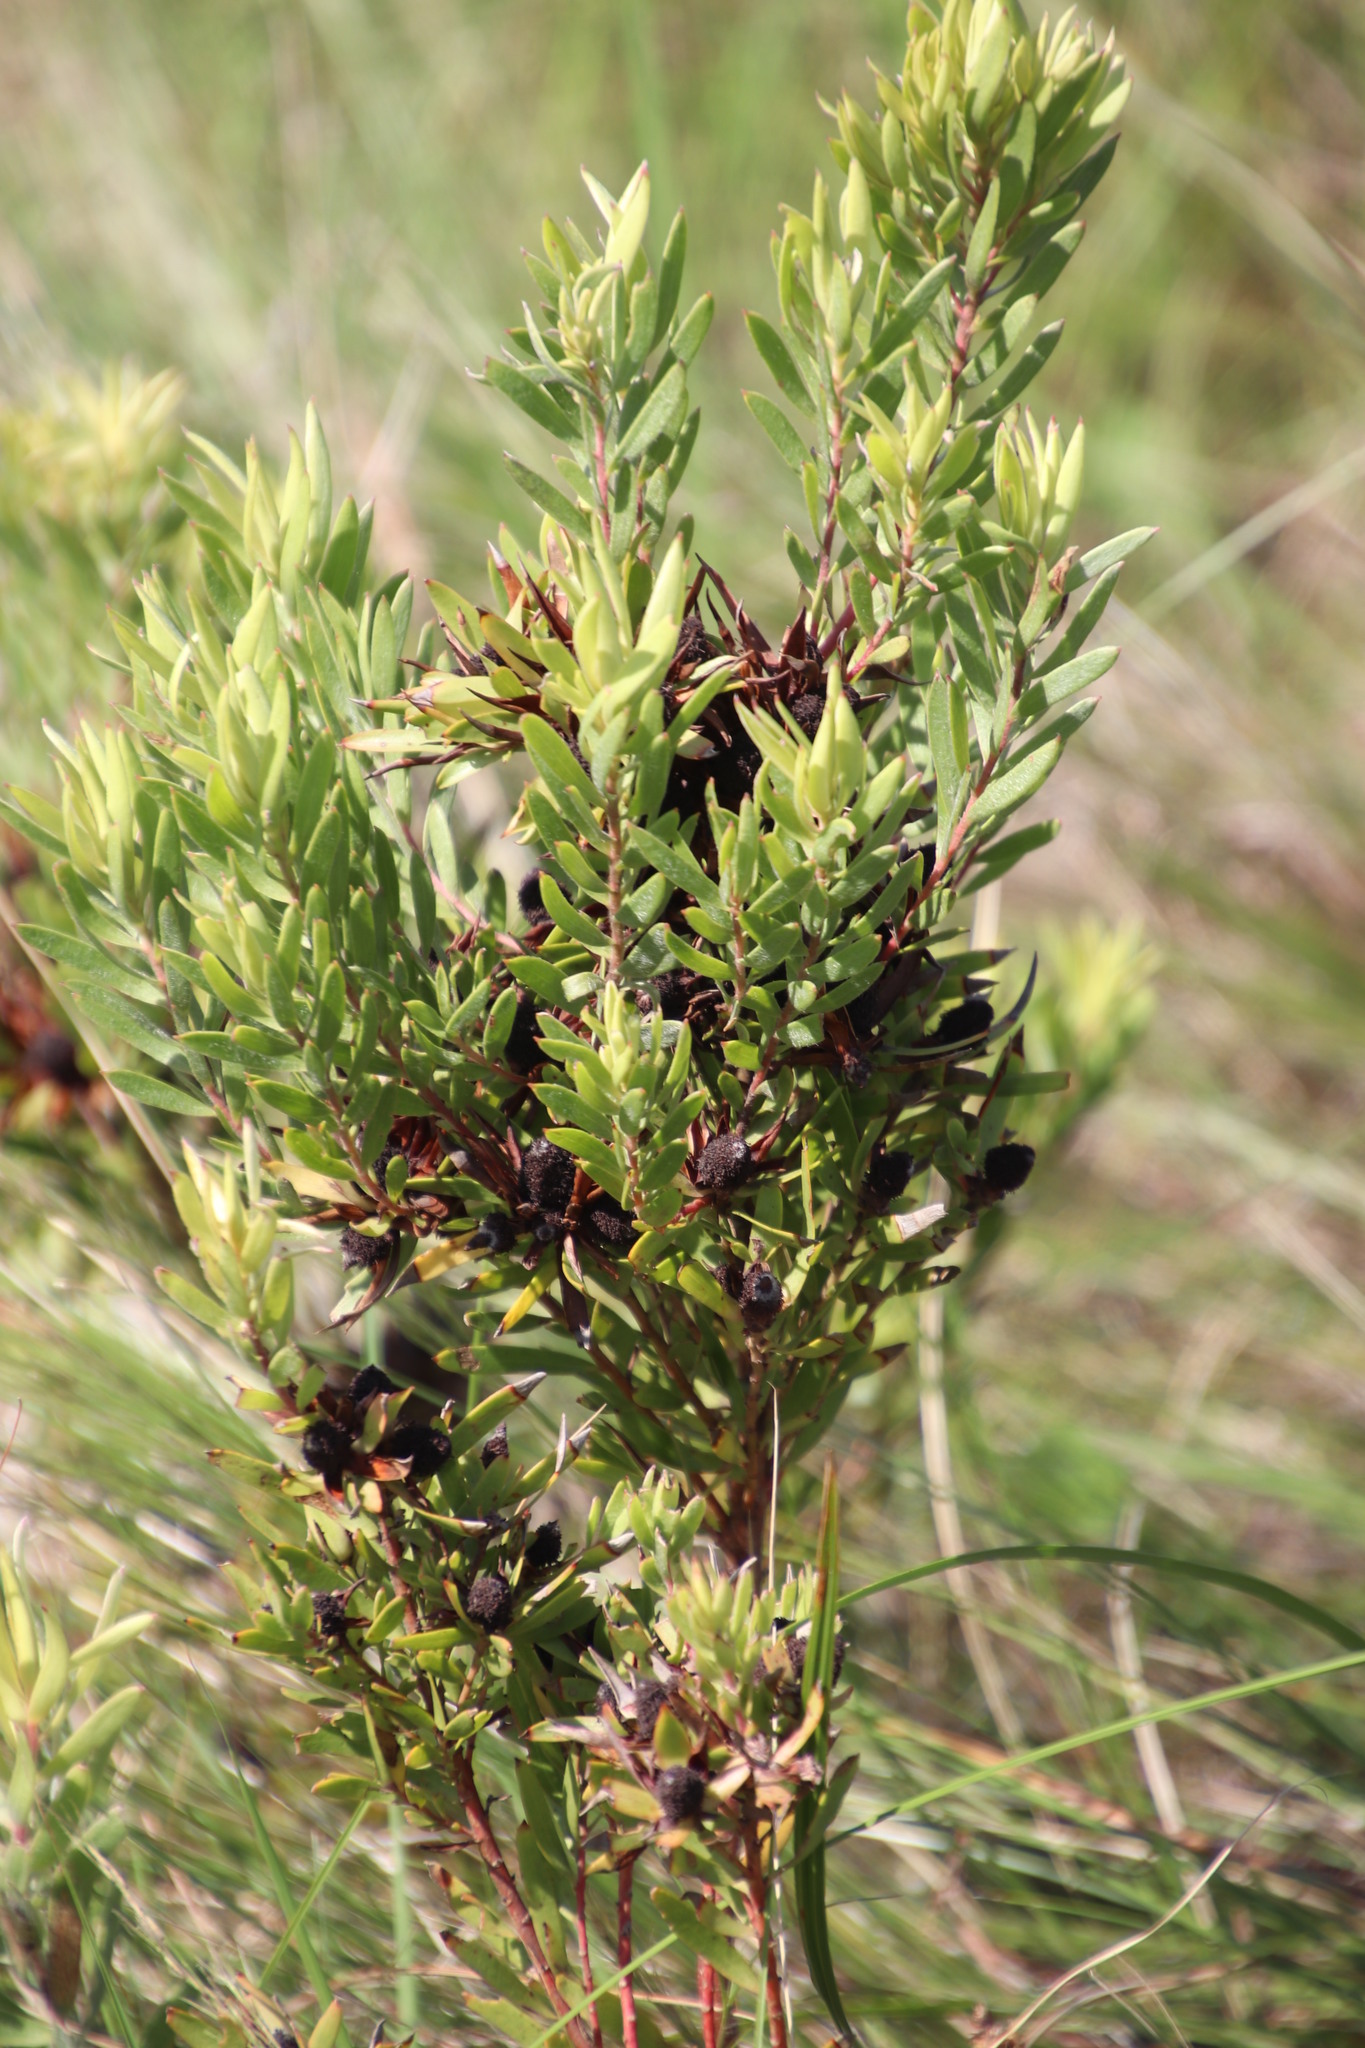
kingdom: Plantae
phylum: Tracheophyta
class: Magnoliopsida
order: Proteales
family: Proteaceae
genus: Leucadendron
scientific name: Leucadendron spissifolium
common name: Spear-leaf conebush
